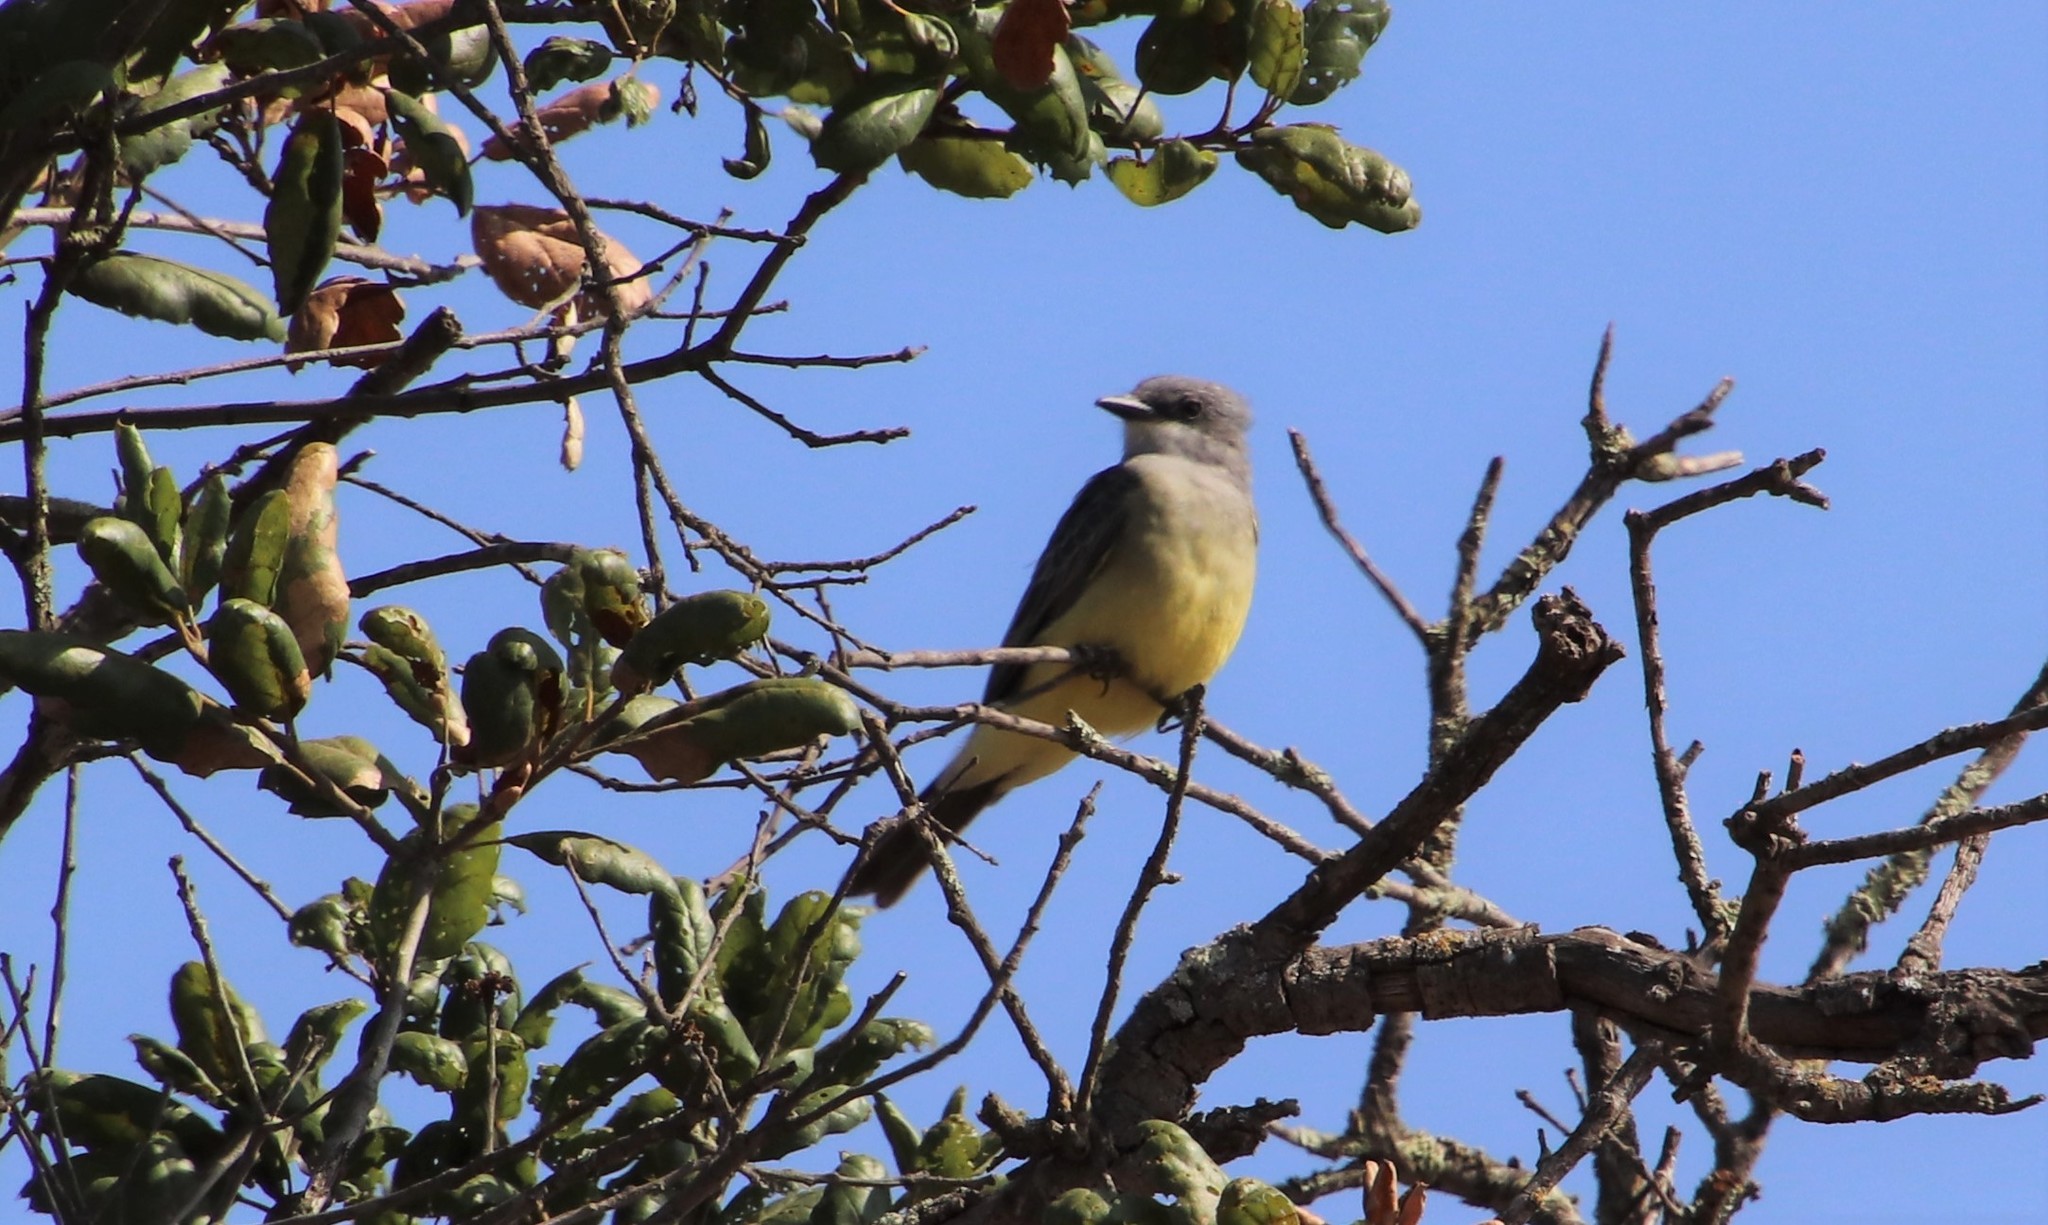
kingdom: Animalia
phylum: Chordata
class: Aves
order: Passeriformes
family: Tyrannidae
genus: Tyrannus
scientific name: Tyrannus vociferans
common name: Cassin's kingbird
